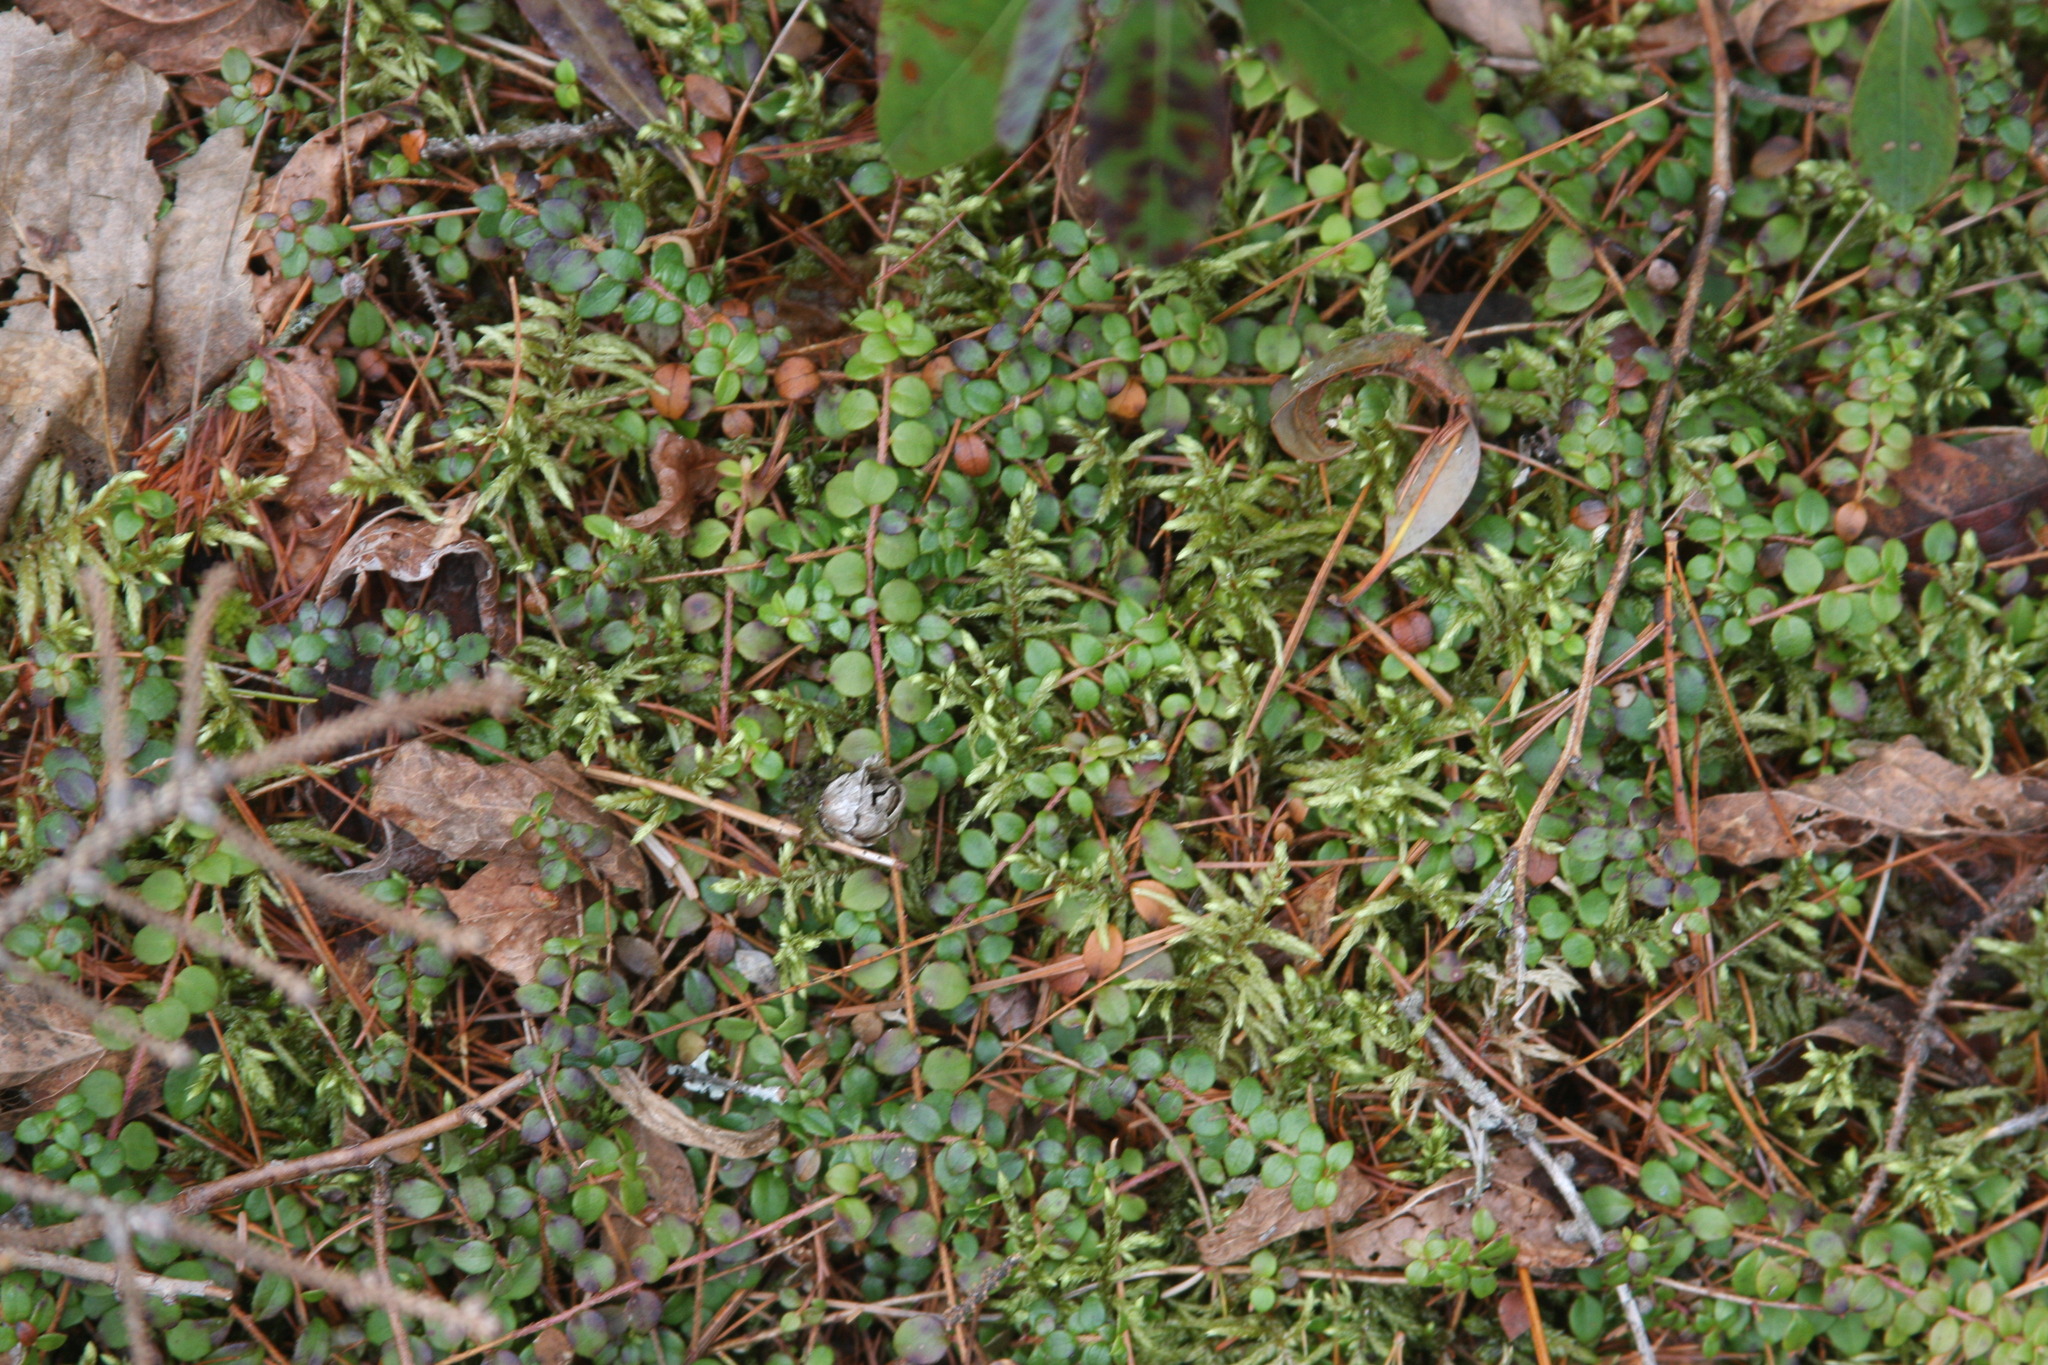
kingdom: Plantae
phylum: Tracheophyta
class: Magnoliopsida
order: Ericales
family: Ericaceae
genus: Gaultheria
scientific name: Gaultheria hispidula
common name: Cancer wintergreen
